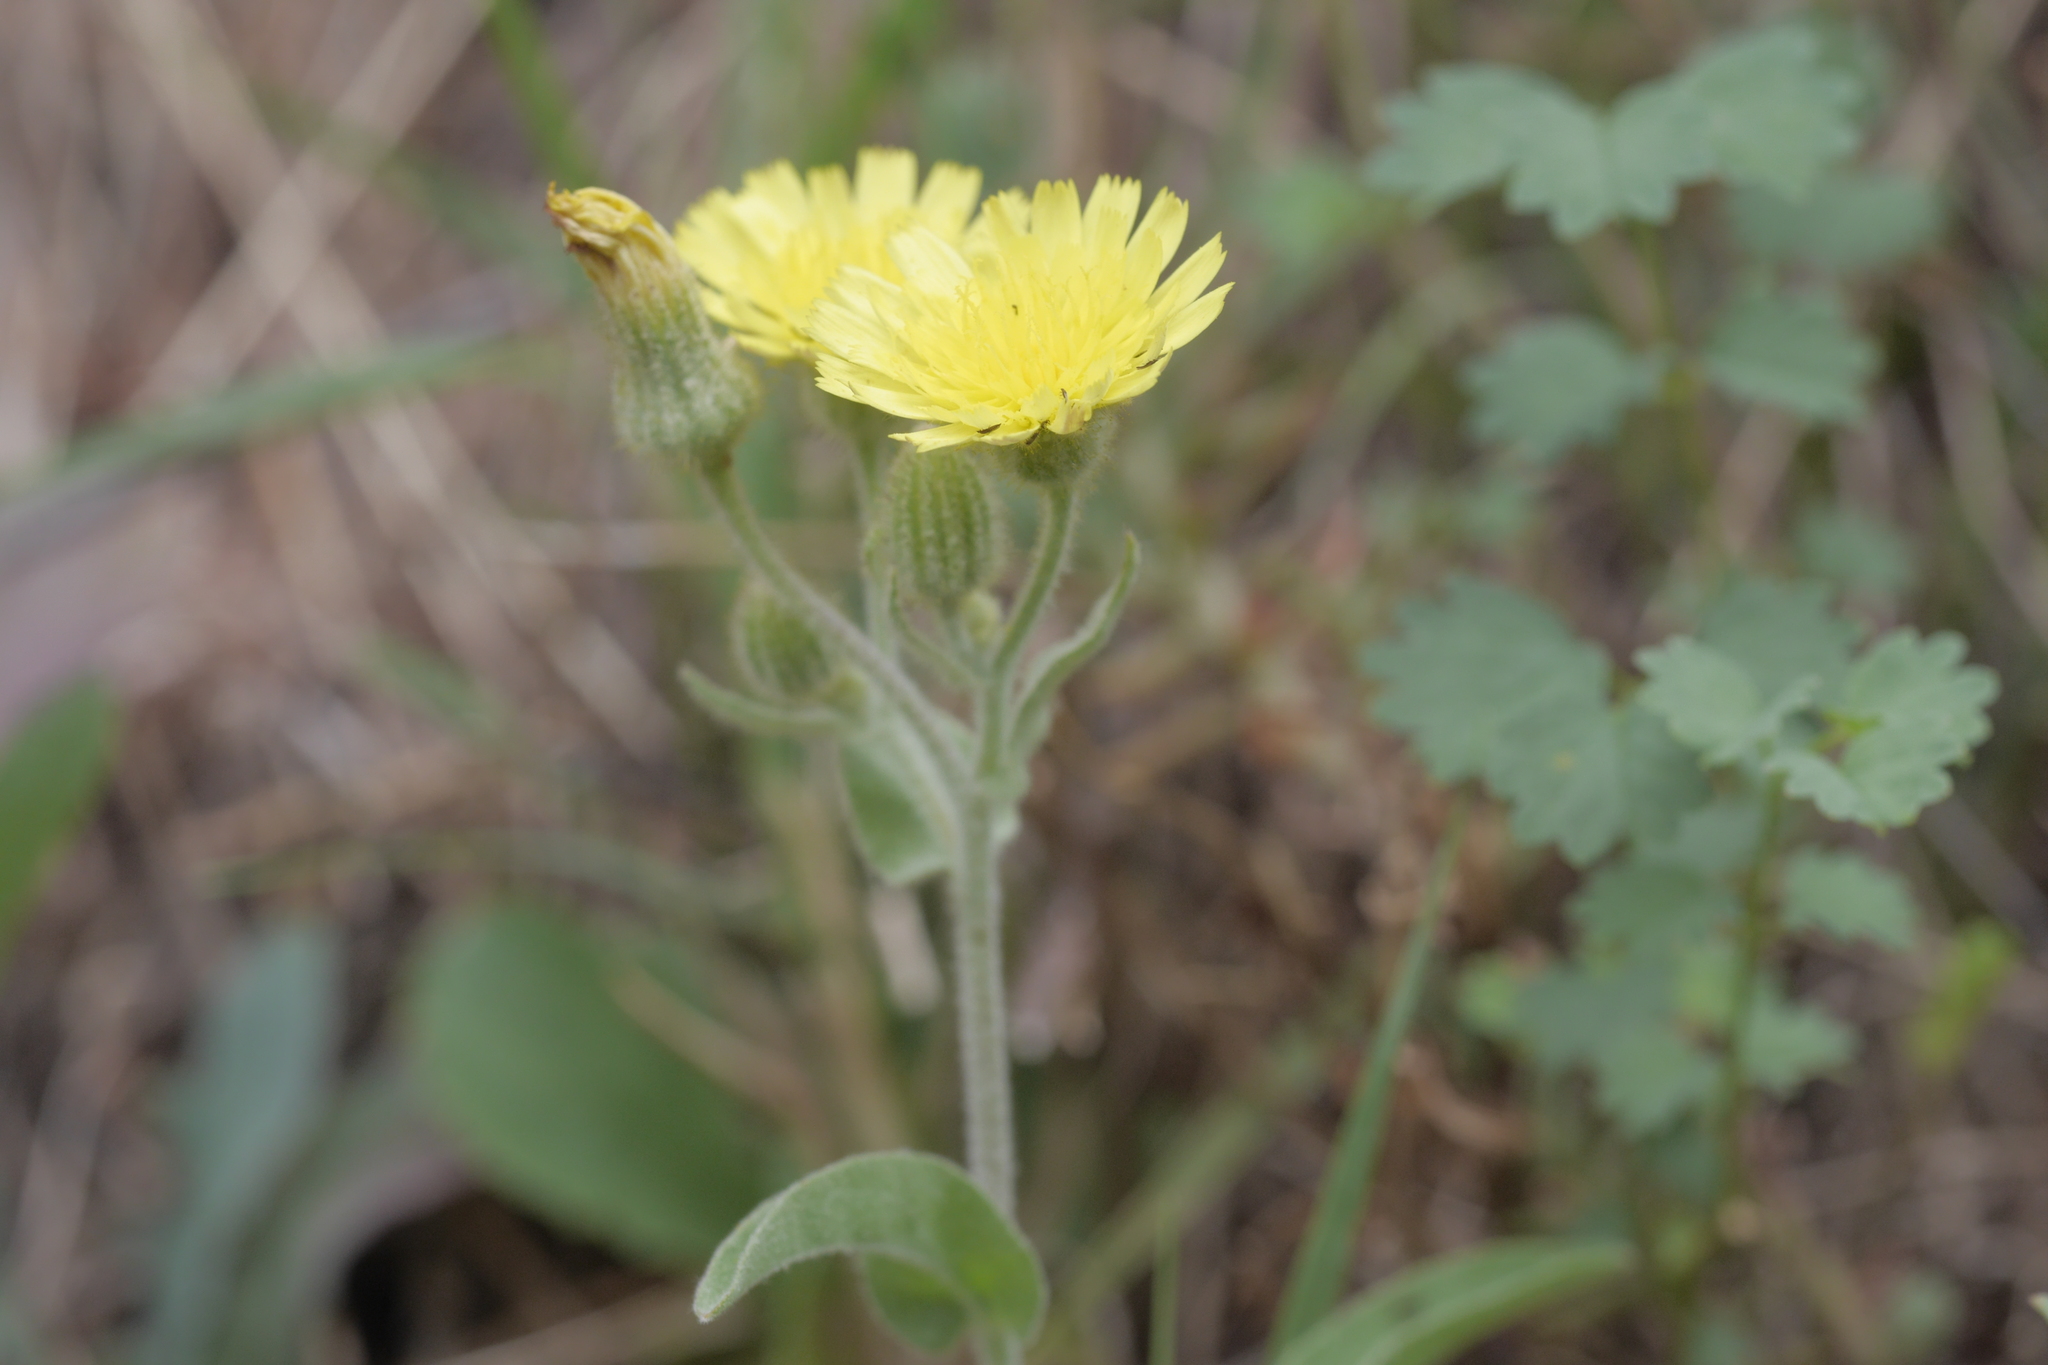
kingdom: Plantae
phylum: Tracheophyta
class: Magnoliopsida
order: Asterales
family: Asteraceae
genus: Andryala
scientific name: Andryala integrifolia
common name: Common andryala
